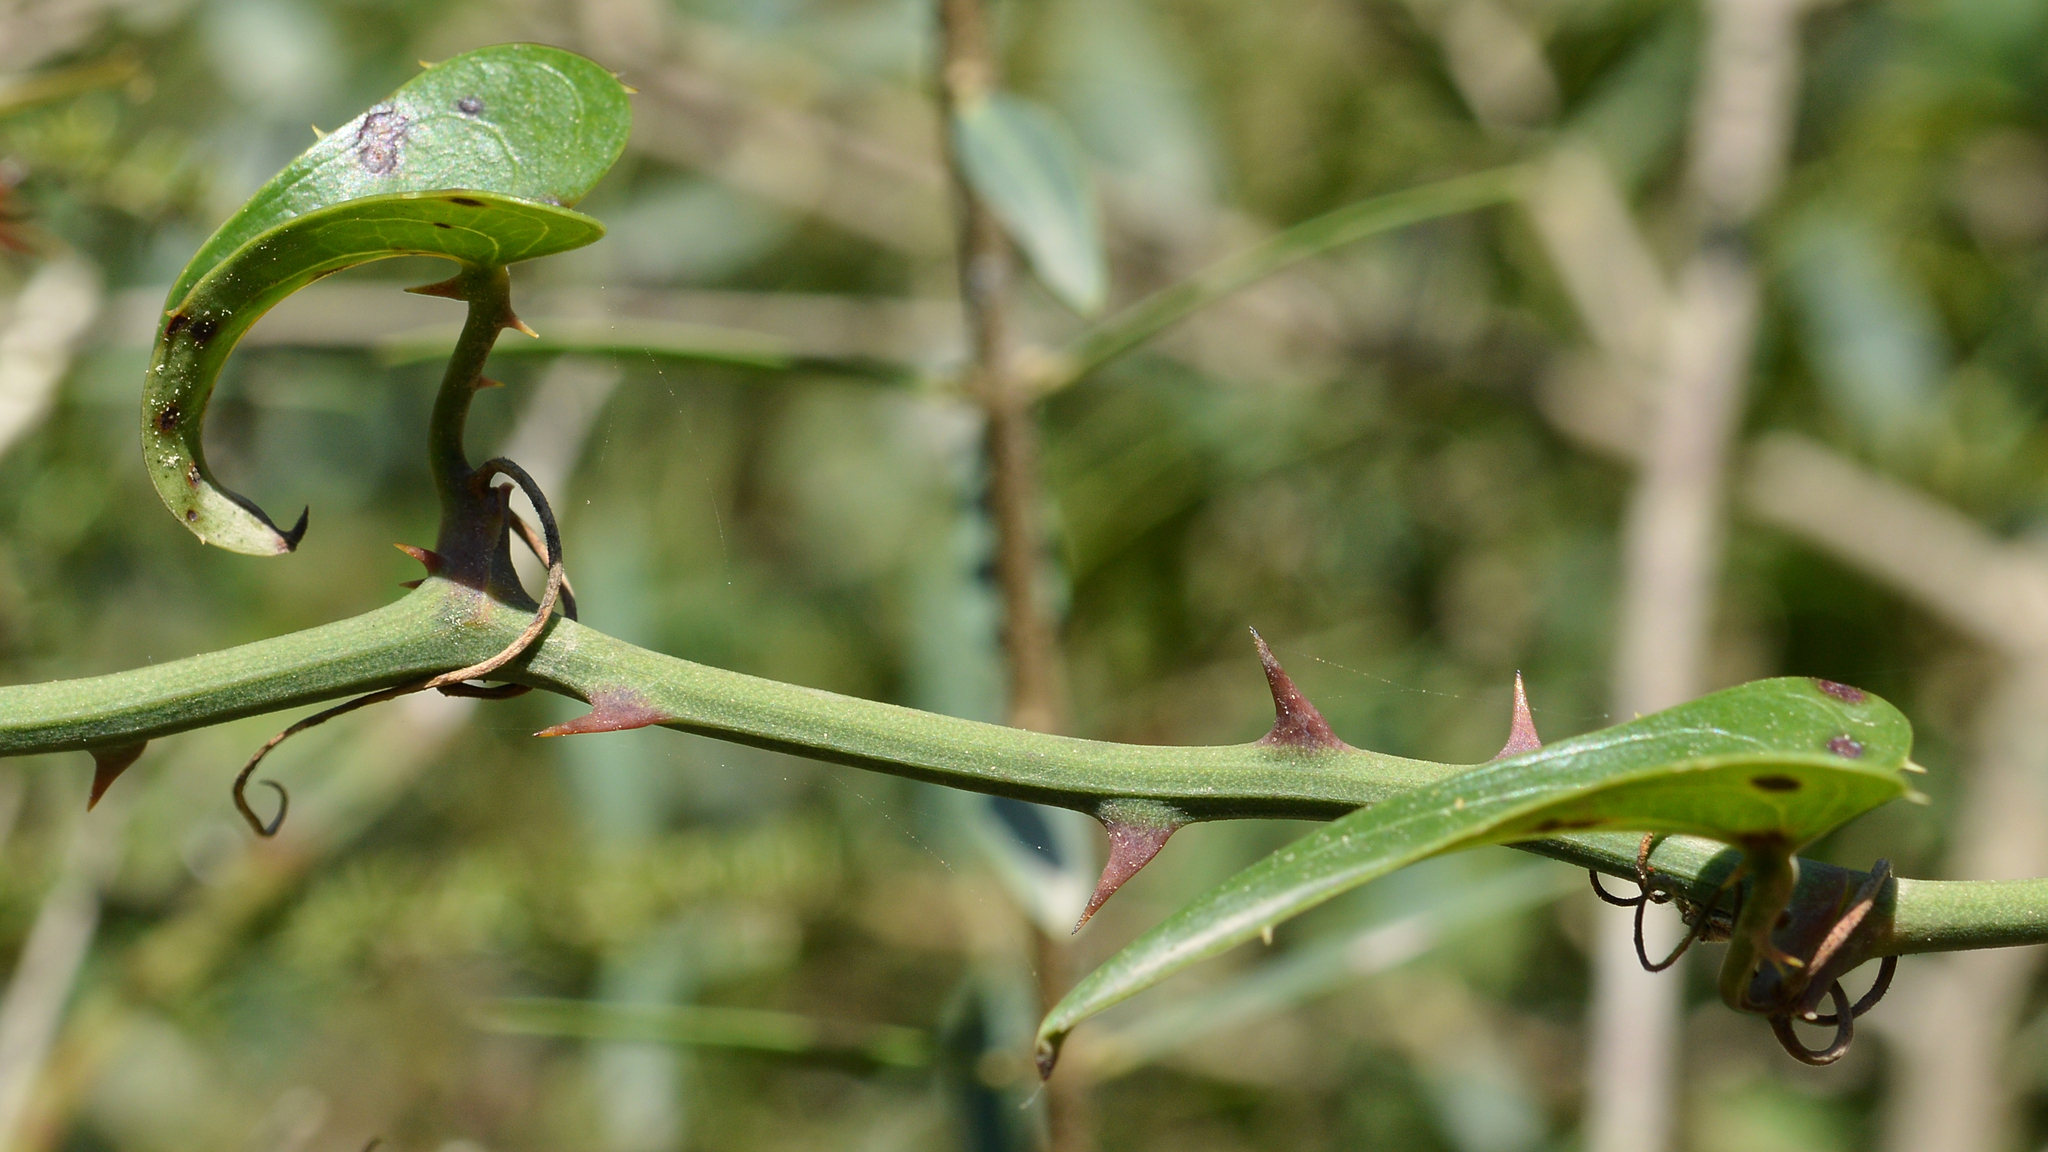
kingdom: Plantae
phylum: Tracheophyta
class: Liliopsida
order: Liliales
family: Smilacaceae
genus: Smilax
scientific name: Smilax aspera
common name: Common smilax
